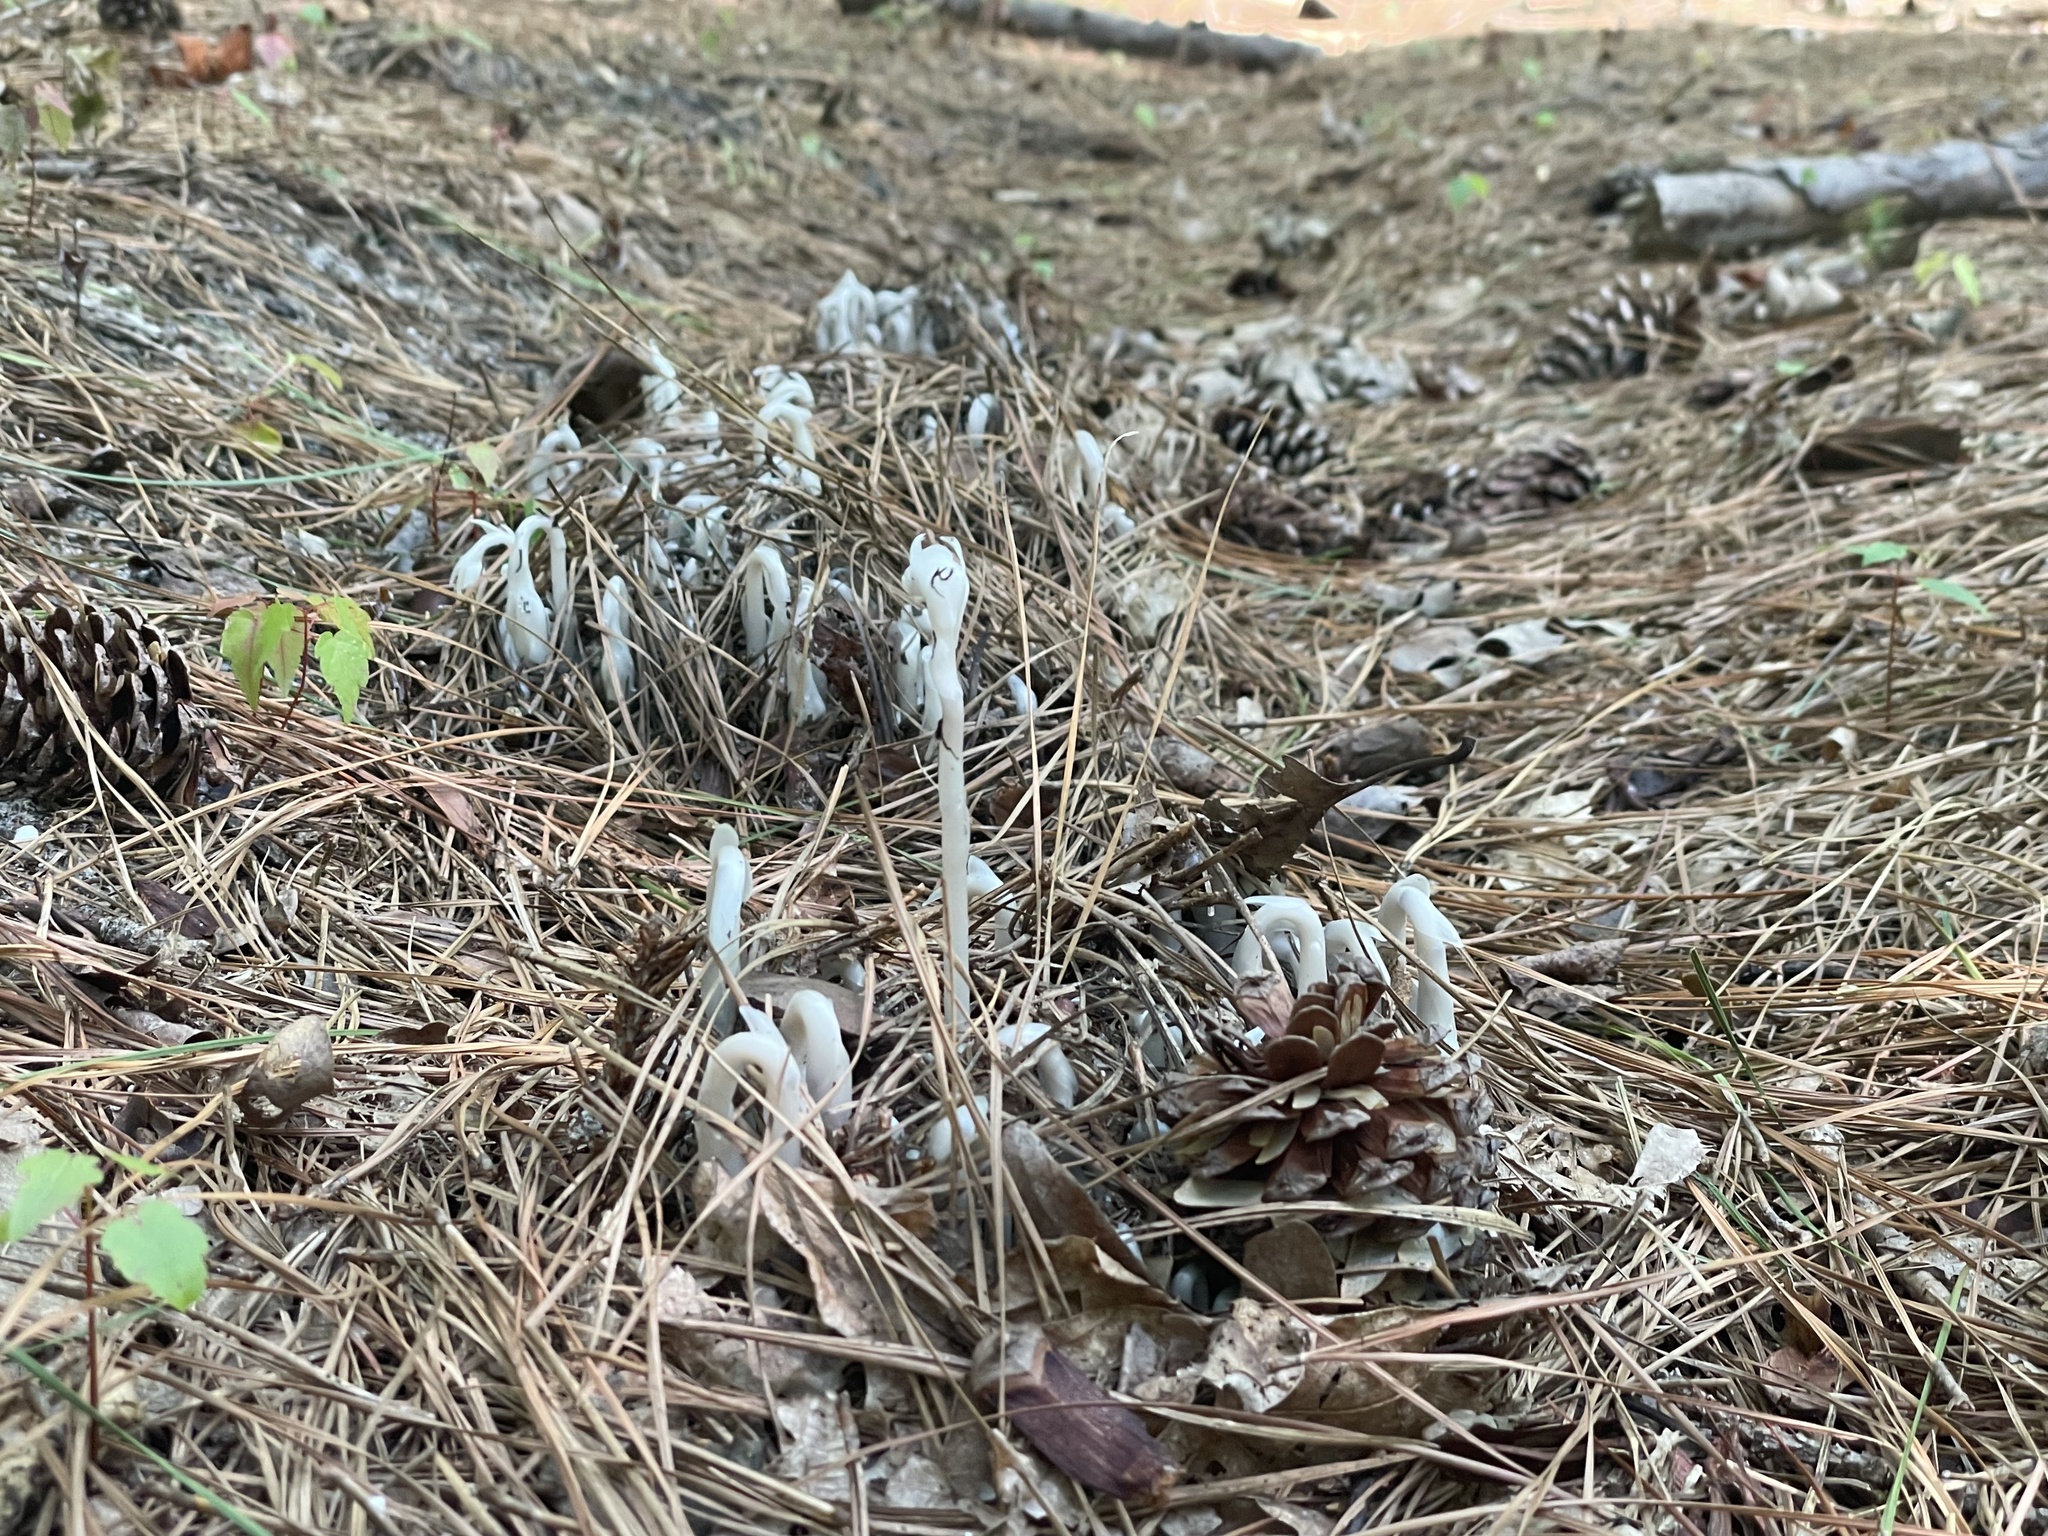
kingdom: Plantae
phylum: Tracheophyta
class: Magnoliopsida
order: Ericales
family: Ericaceae
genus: Monotropa
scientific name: Monotropa uniflora
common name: Convulsion root
